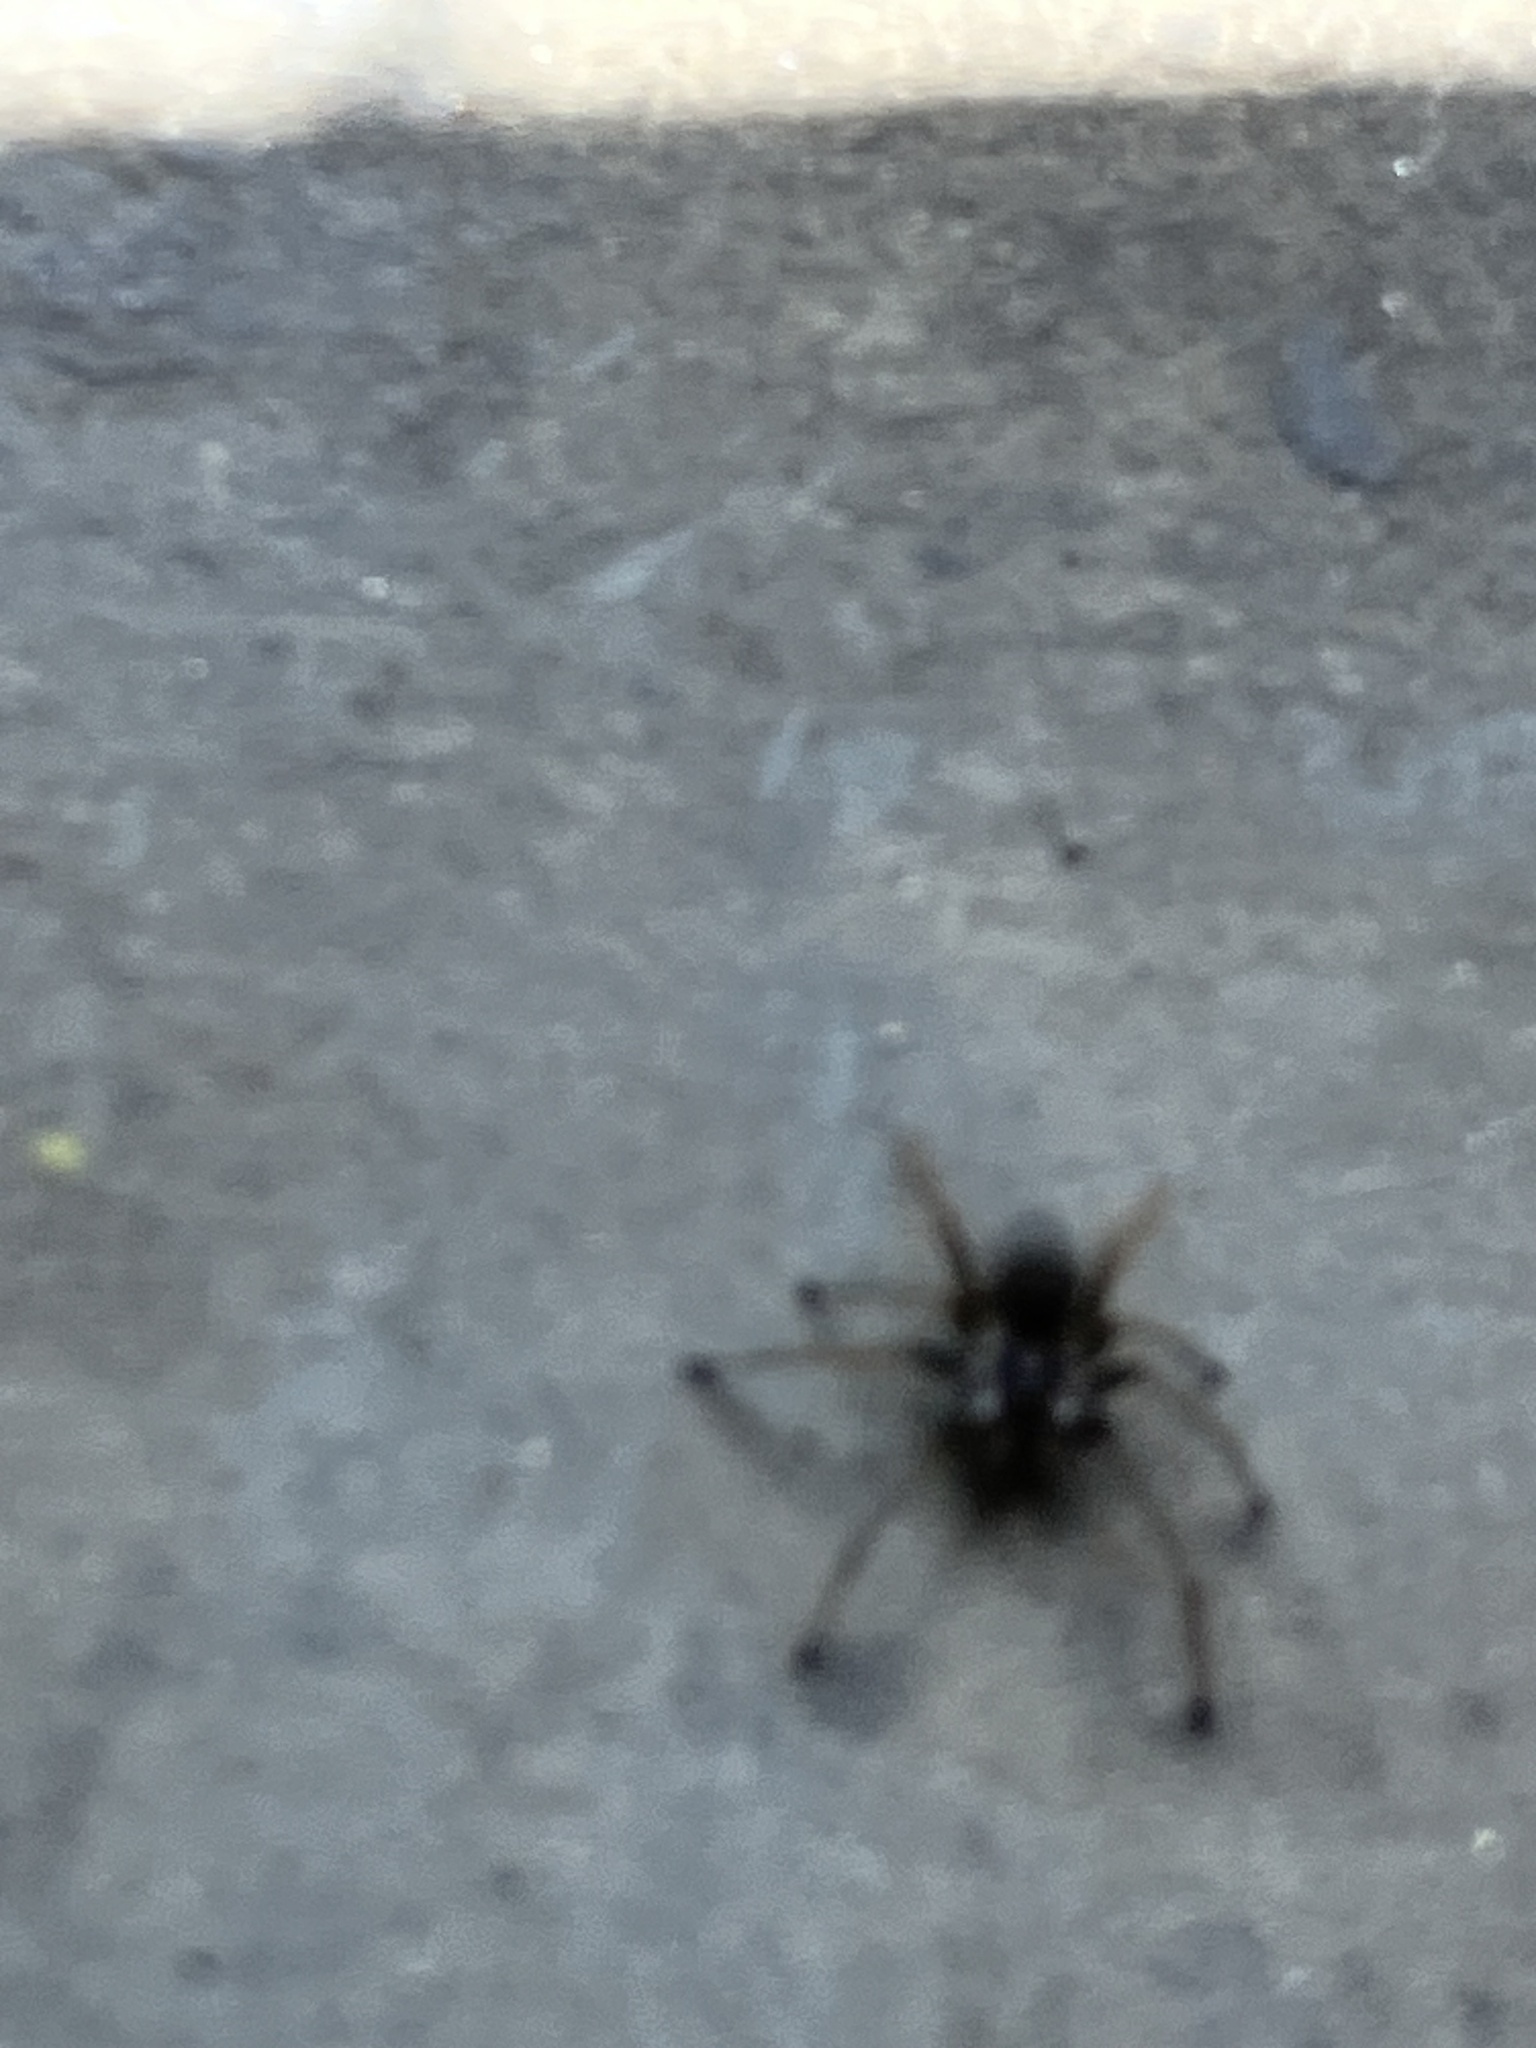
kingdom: Animalia
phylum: Arthropoda
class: Arachnida
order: Araneae
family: Filistatidae
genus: Kukulcania
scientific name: Kukulcania hibernalis
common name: Crevice weaver
